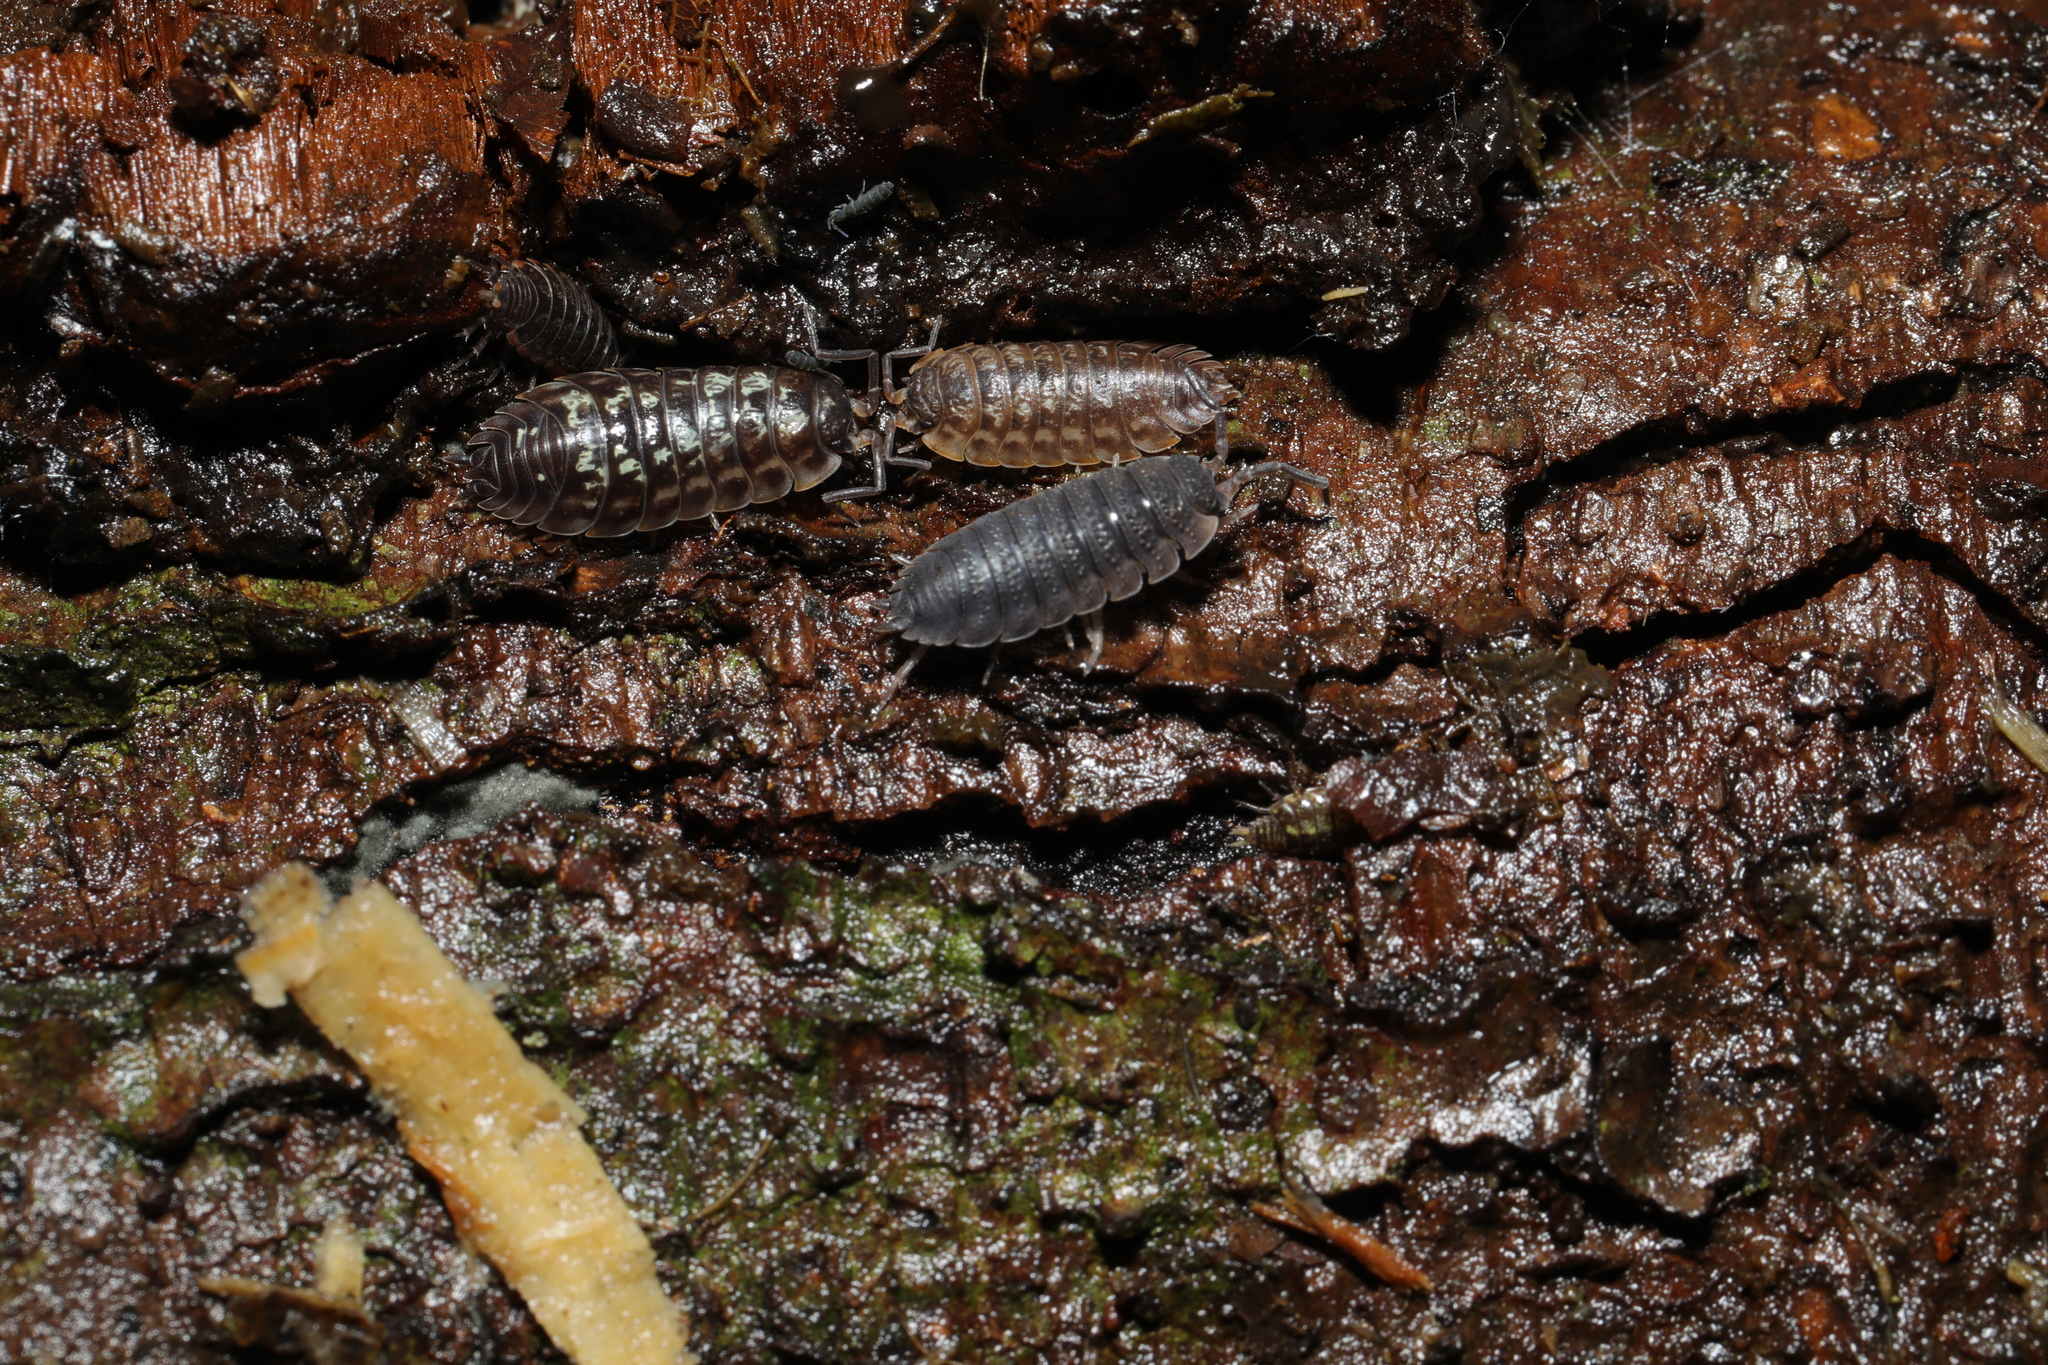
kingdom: Animalia
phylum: Arthropoda
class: Malacostraca
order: Isopoda
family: Porcellionidae
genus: Porcellio
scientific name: Porcellio scaber
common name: Common rough woodlouse
